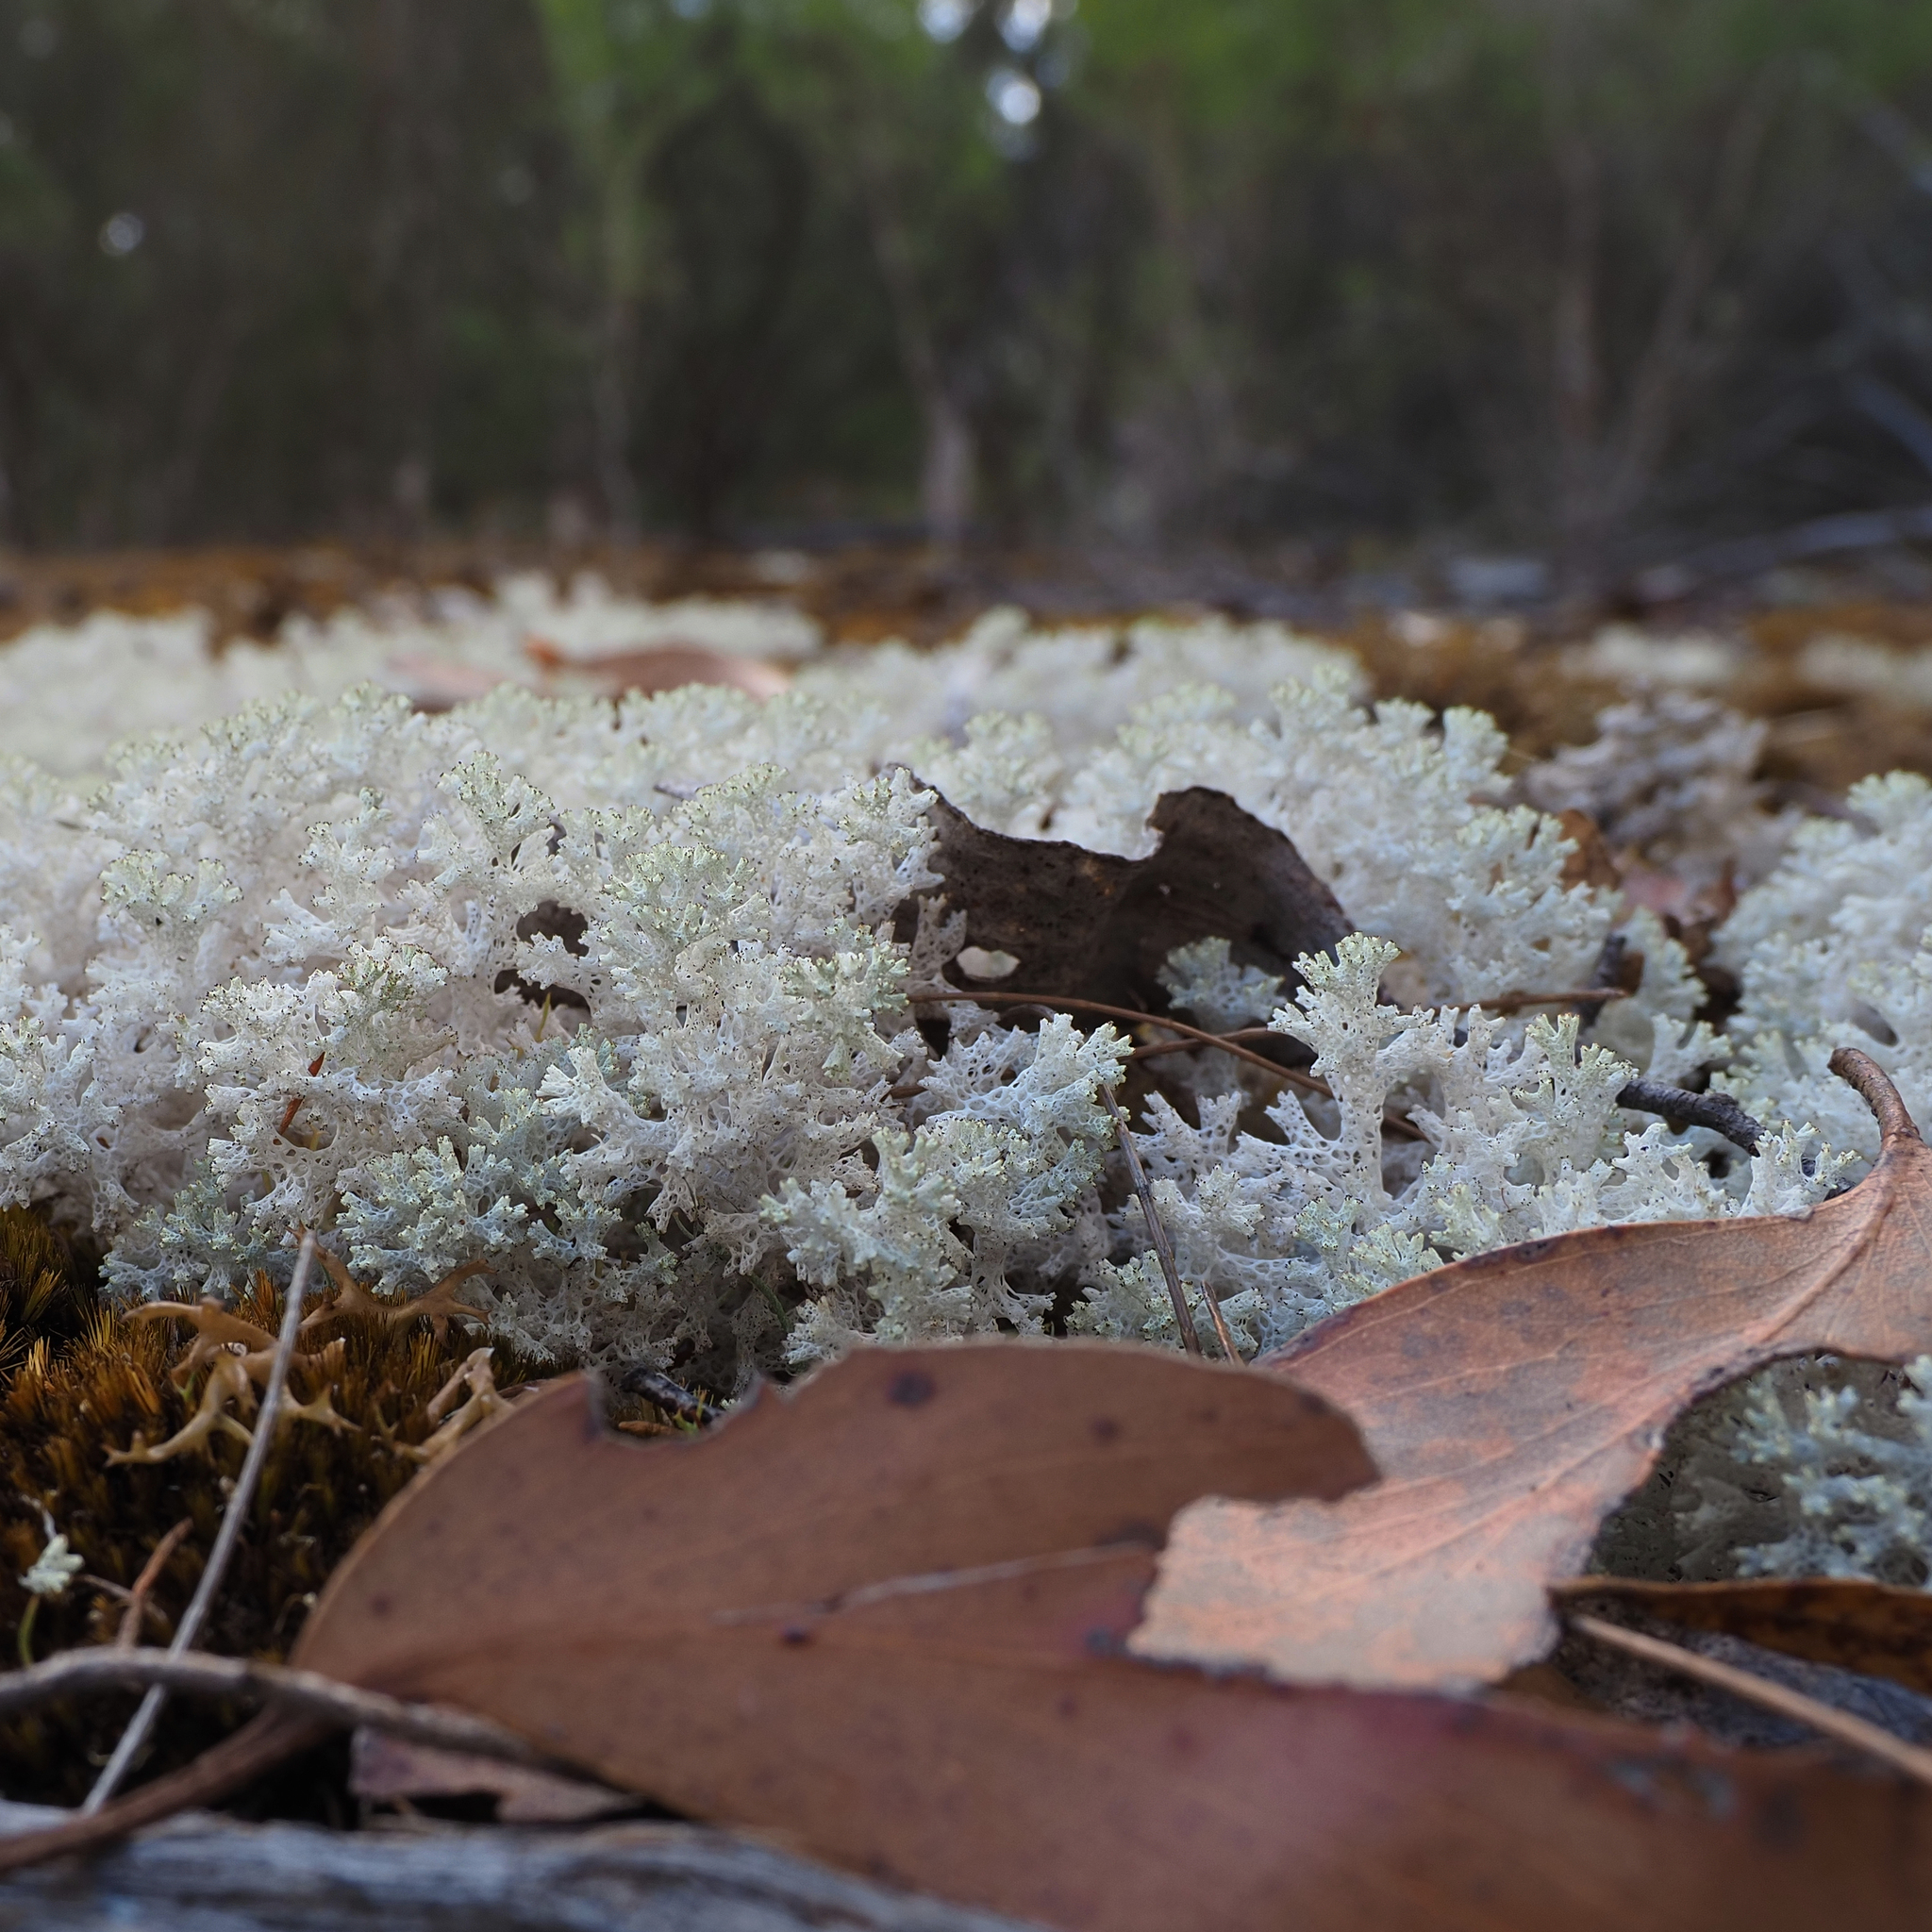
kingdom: Fungi
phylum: Ascomycota
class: Lecanoromycetes
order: Lecanorales
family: Cladoniaceae
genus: Pulchrocladia
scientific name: Pulchrocladia retipora
